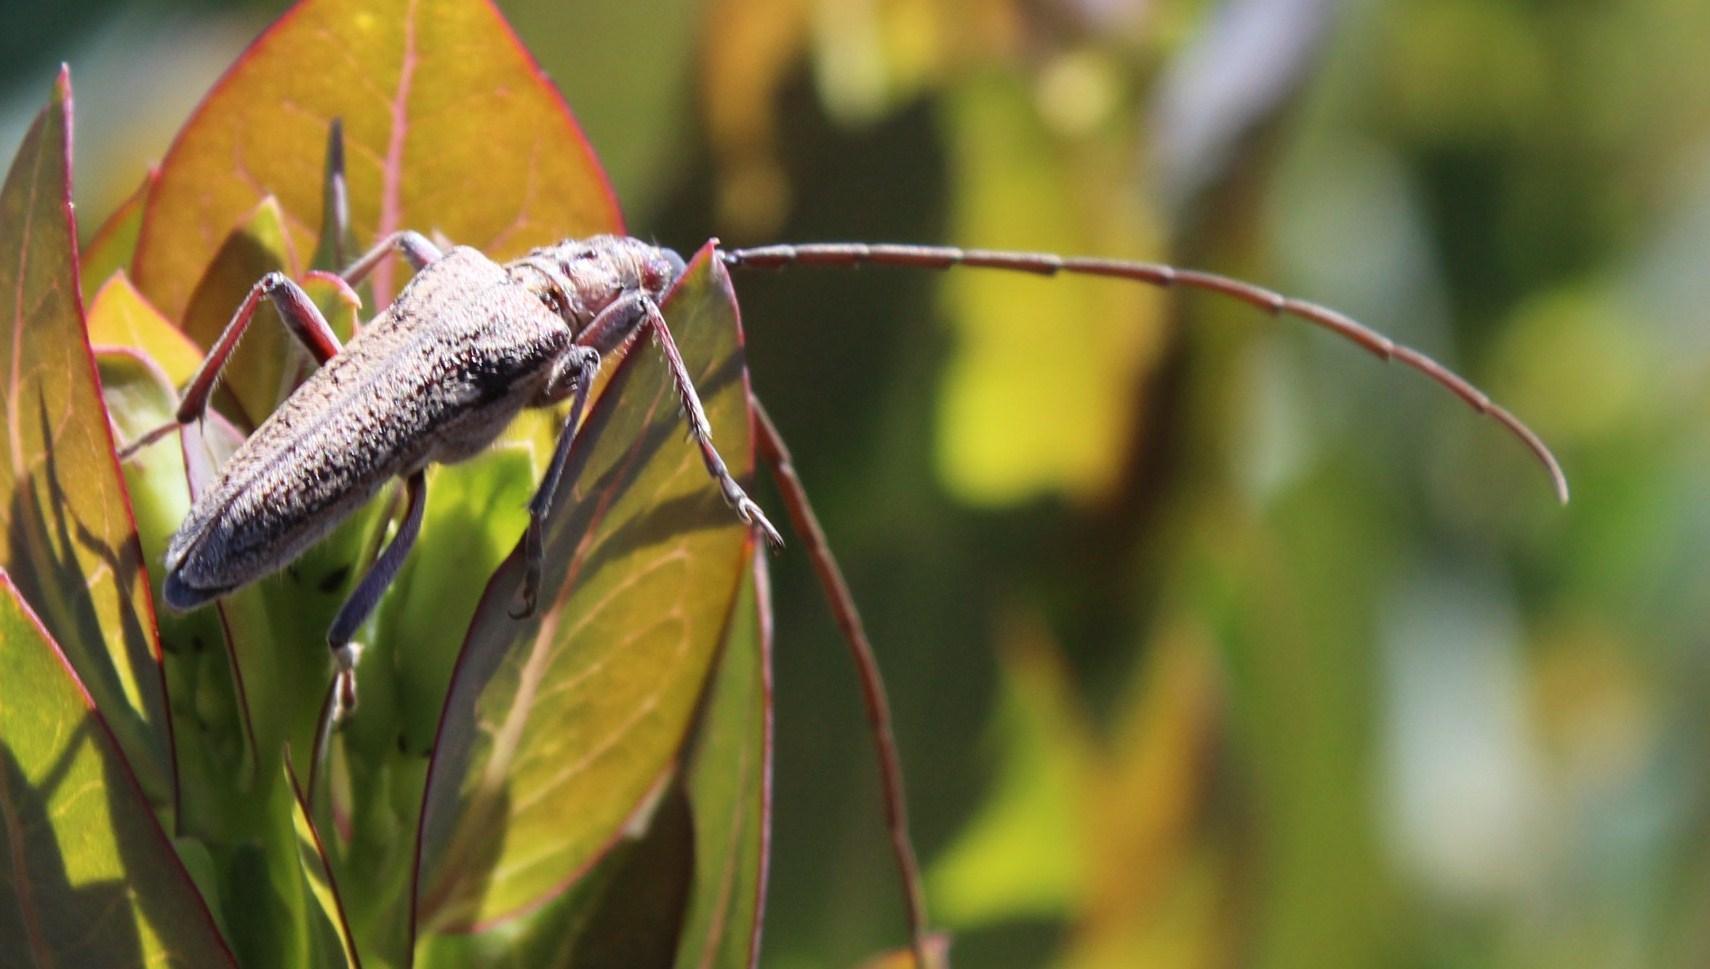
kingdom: Animalia
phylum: Arthropoda
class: Insecta
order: Coleoptera
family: Cerambycidae
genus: Aristogitus
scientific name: Aristogitus cylindricus
